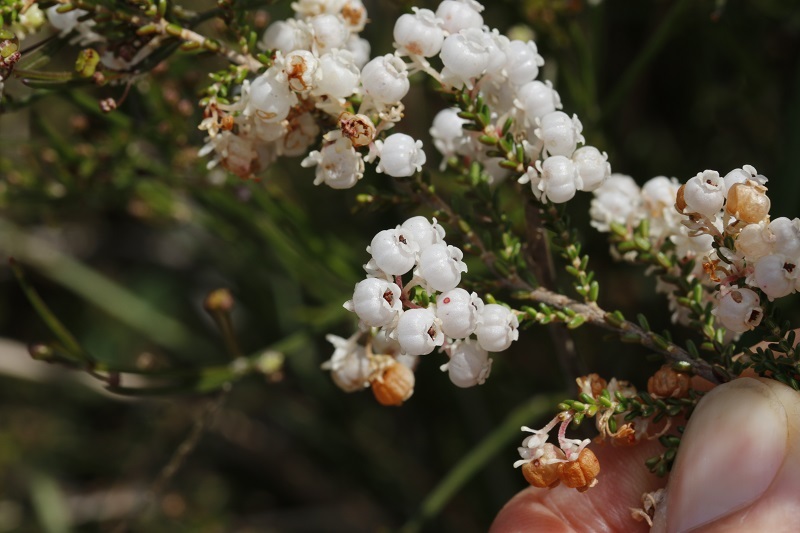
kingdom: Plantae
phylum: Tracheophyta
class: Magnoliopsida
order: Ericales
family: Ericaceae
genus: Erica
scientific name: Erica formosa
